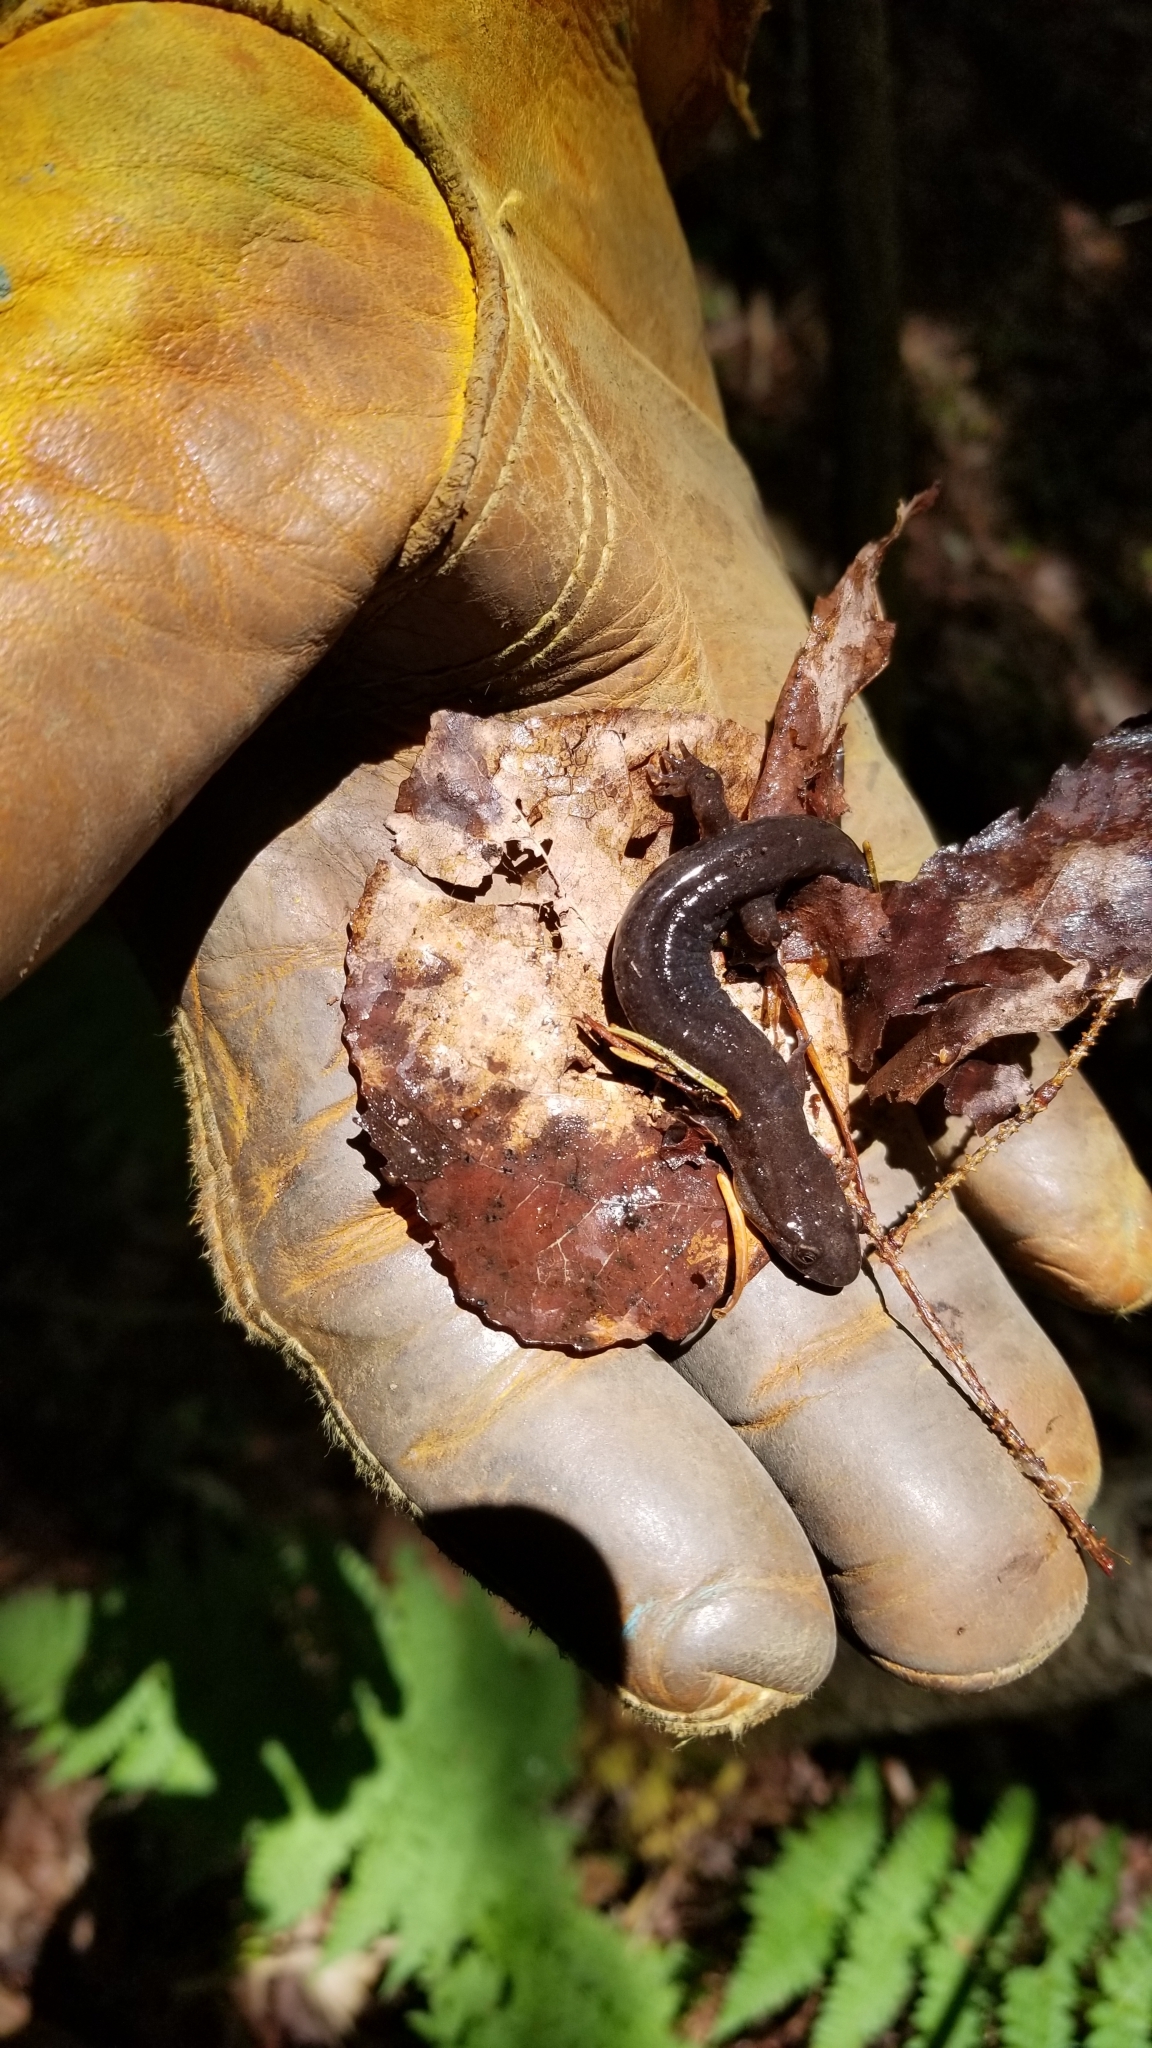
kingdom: Animalia
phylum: Chordata
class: Amphibia
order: Caudata
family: Plethodontidae
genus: Desmognathus
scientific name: Desmognathus fuscus
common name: Northern dusky salamander
